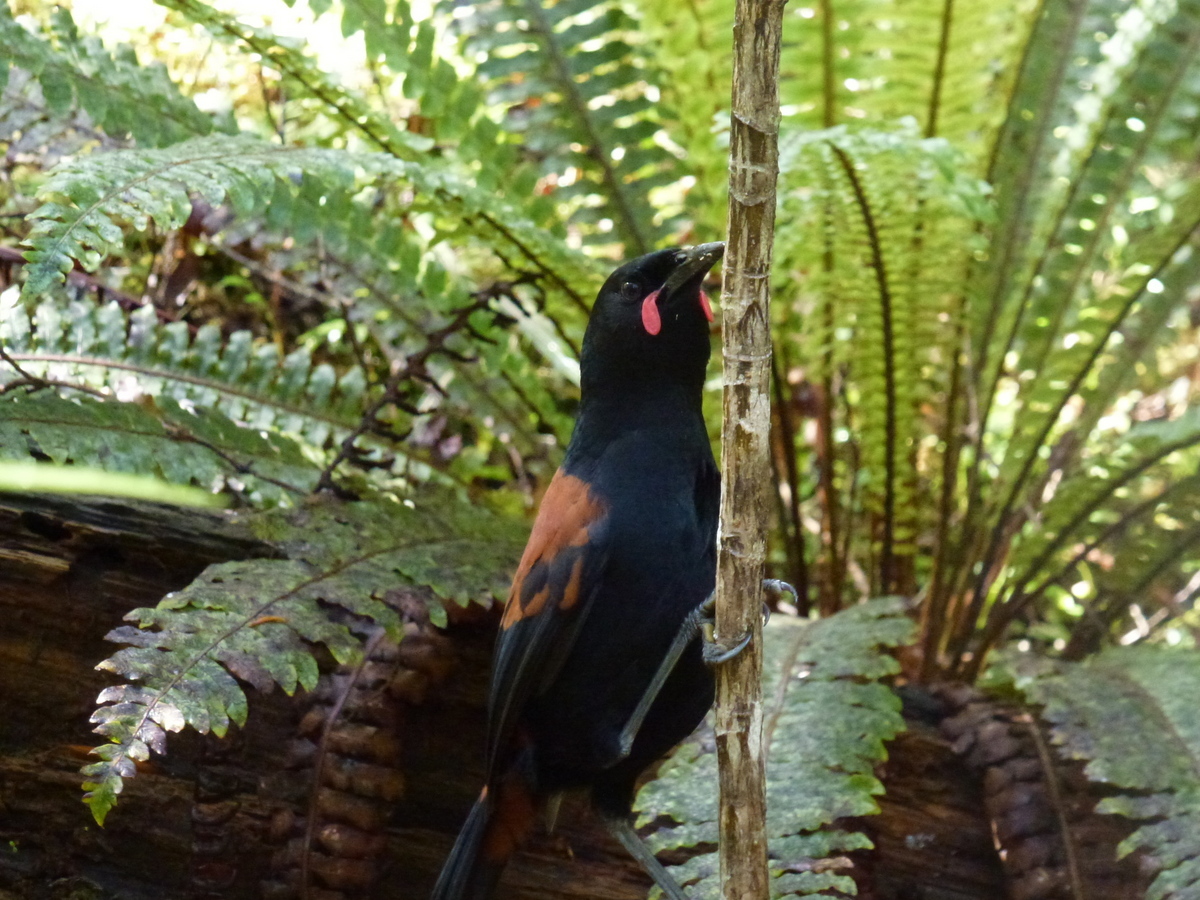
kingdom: Animalia
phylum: Chordata
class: Aves
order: Passeriformes
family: Callaeatidae
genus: Philesturnus
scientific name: Philesturnus carunculatus
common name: South island saddleback
